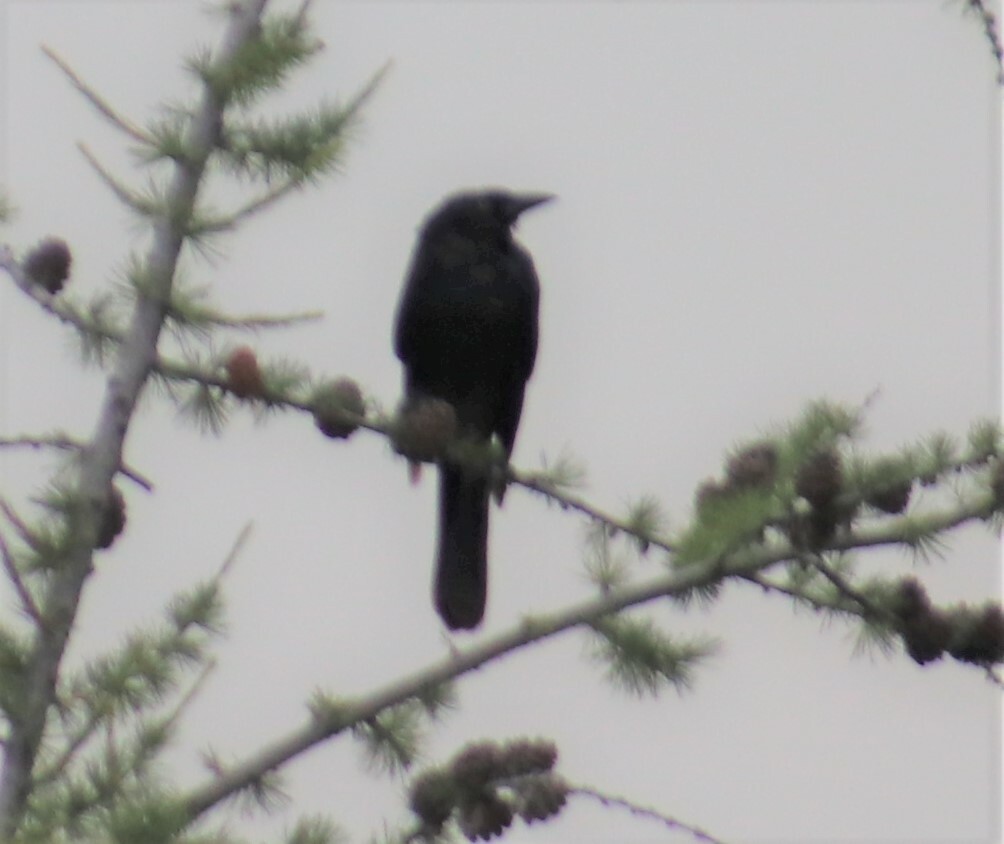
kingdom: Animalia
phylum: Chordata
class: Aves
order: Passeriformes
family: Icteridae
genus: Quiscalus
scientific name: Quiscalus quiscula
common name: Common grackle
